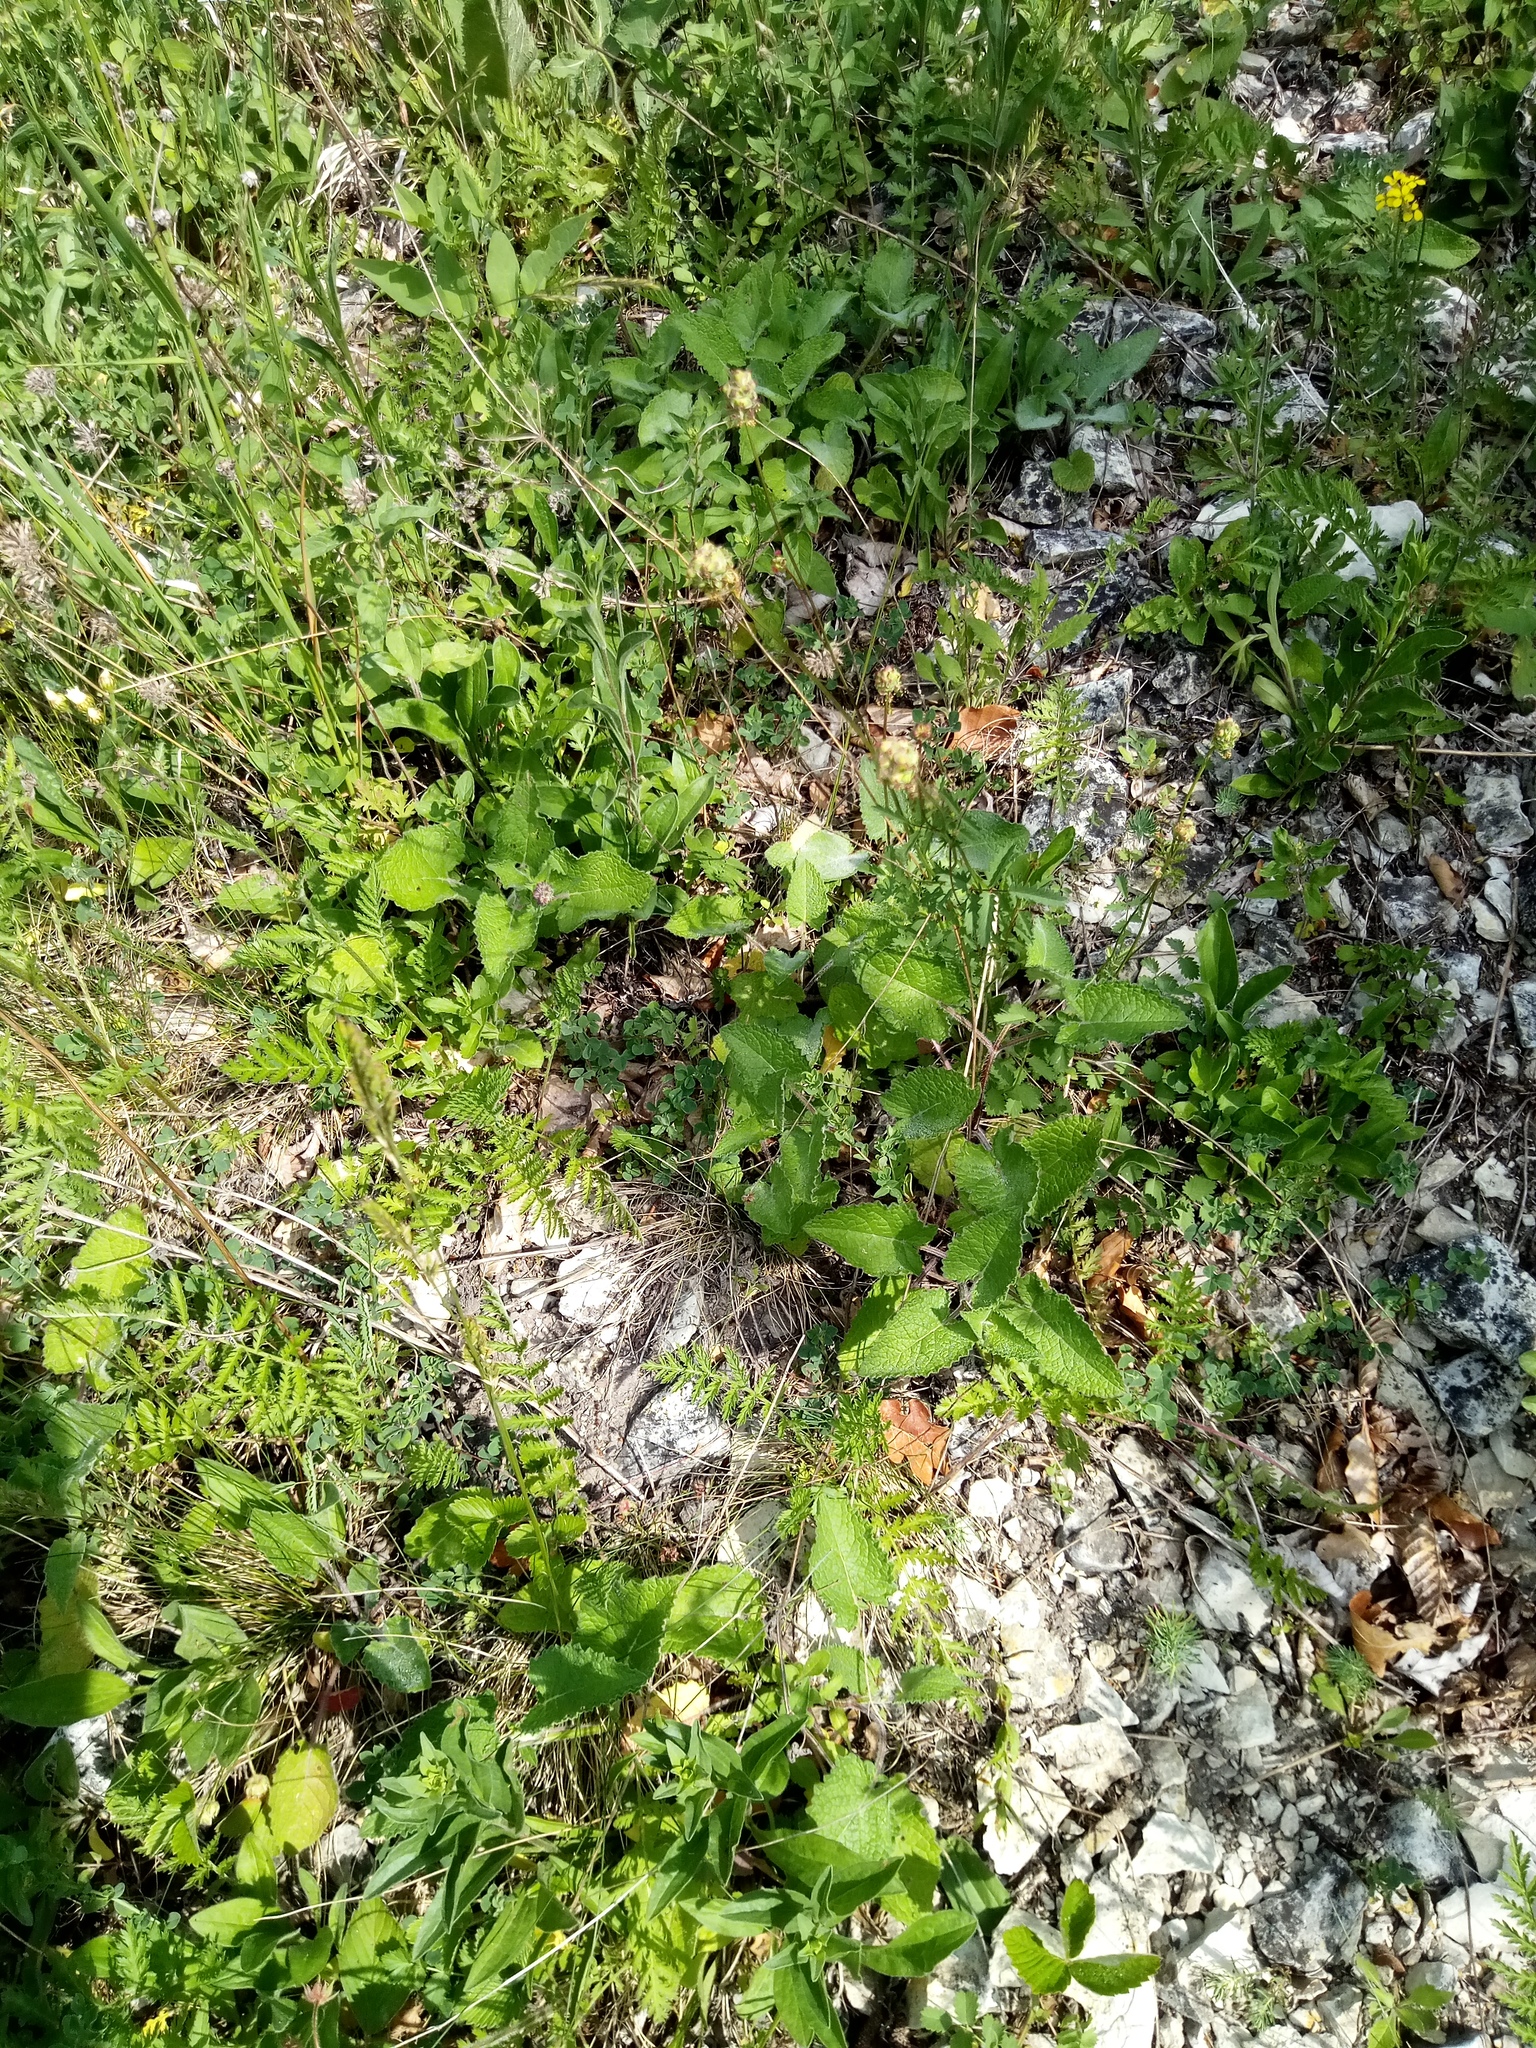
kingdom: Plantae
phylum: Tracheophyta
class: Magnoliopsida
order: Rosales
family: Rosaceae
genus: Poterium
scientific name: Poterium sanguisorba
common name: Salad burnet
